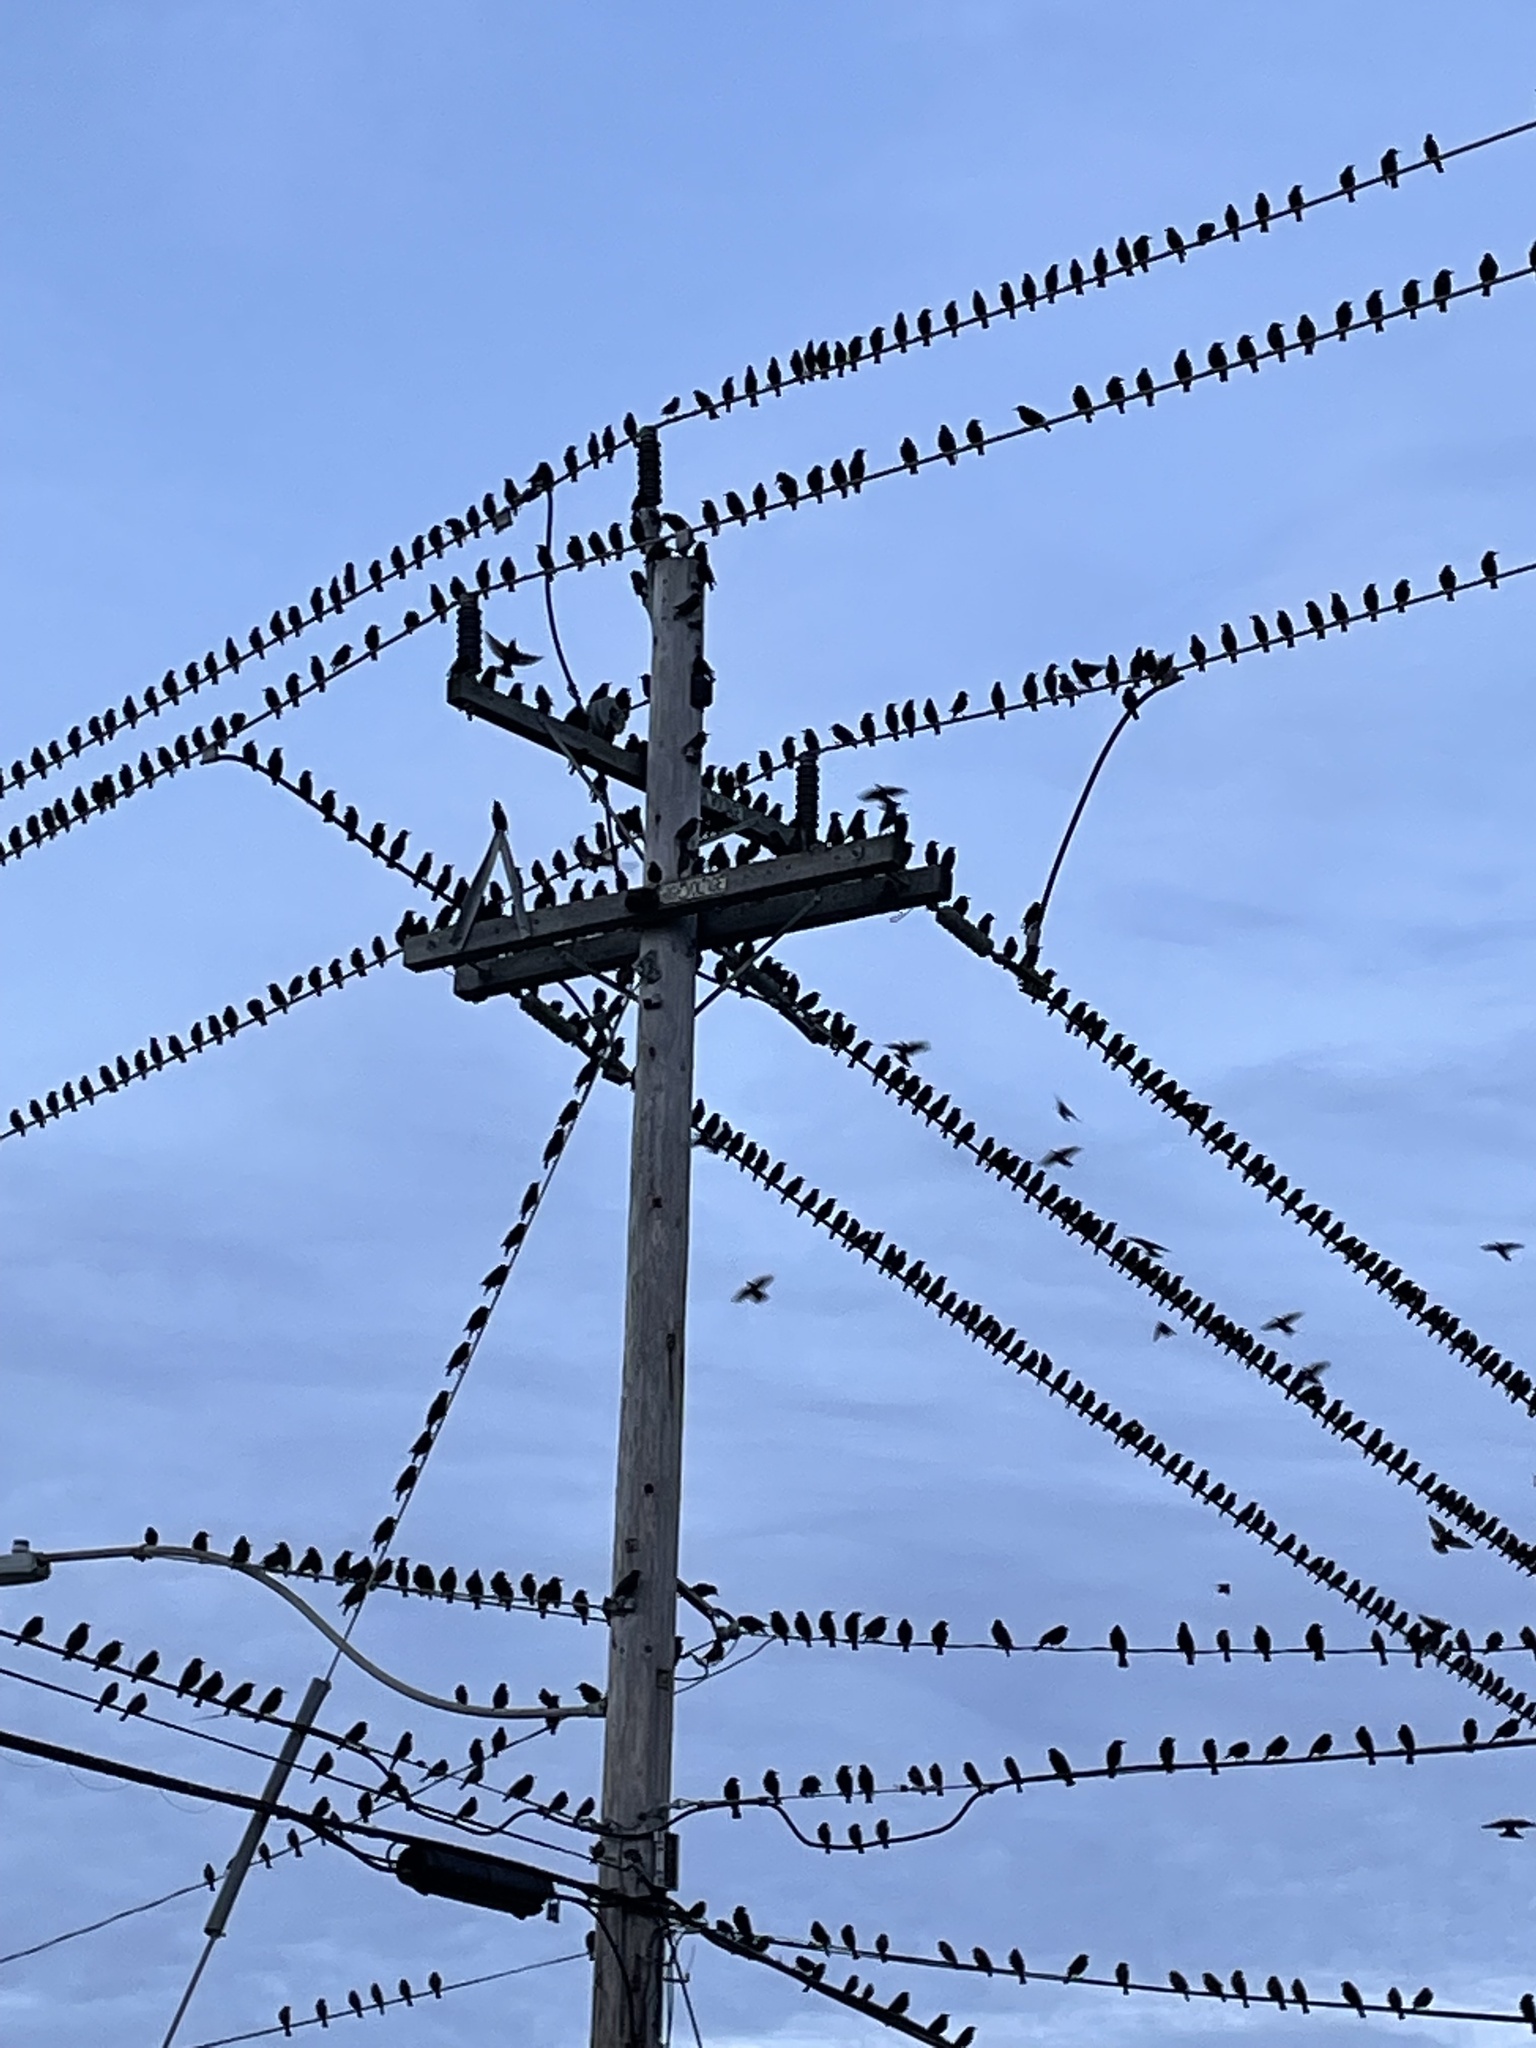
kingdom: Animalia
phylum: Chordata
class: Aves
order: Passeriformes
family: Icteridae
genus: Agelaius
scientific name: Agelaius phoeniceus
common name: Red-winged blackbird
